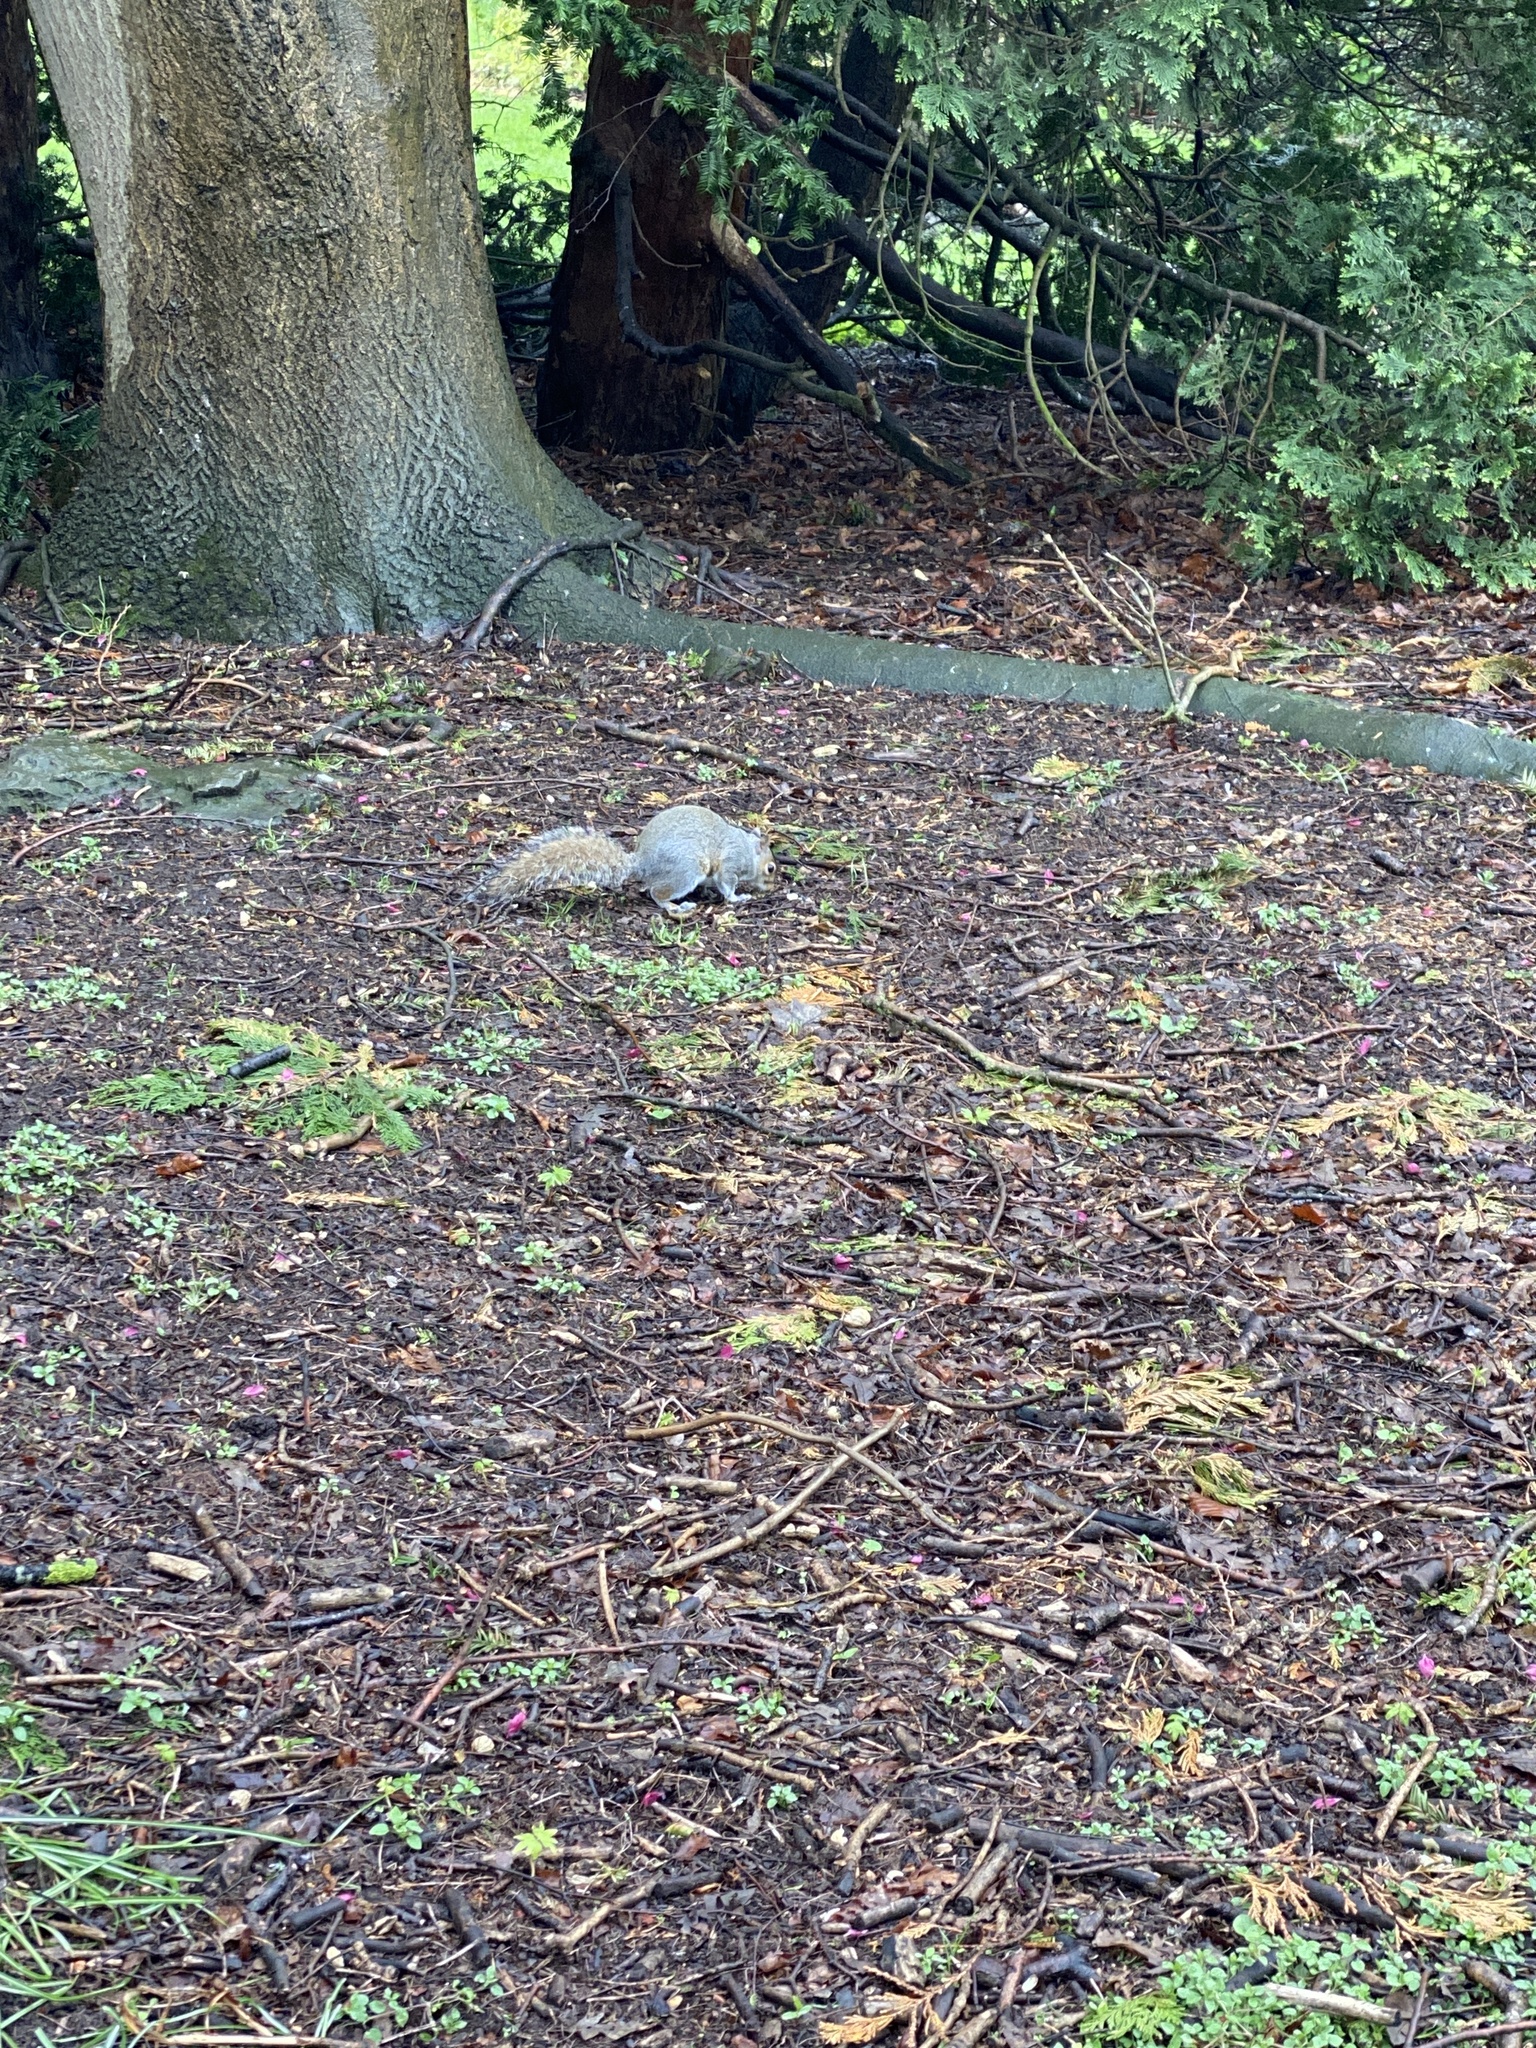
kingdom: Animalia
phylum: Chordata
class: Mammalia
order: Rodentia
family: Sciuridae
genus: Sciurus
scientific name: Sciurus carolinensis
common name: Eastern gray squirrel
